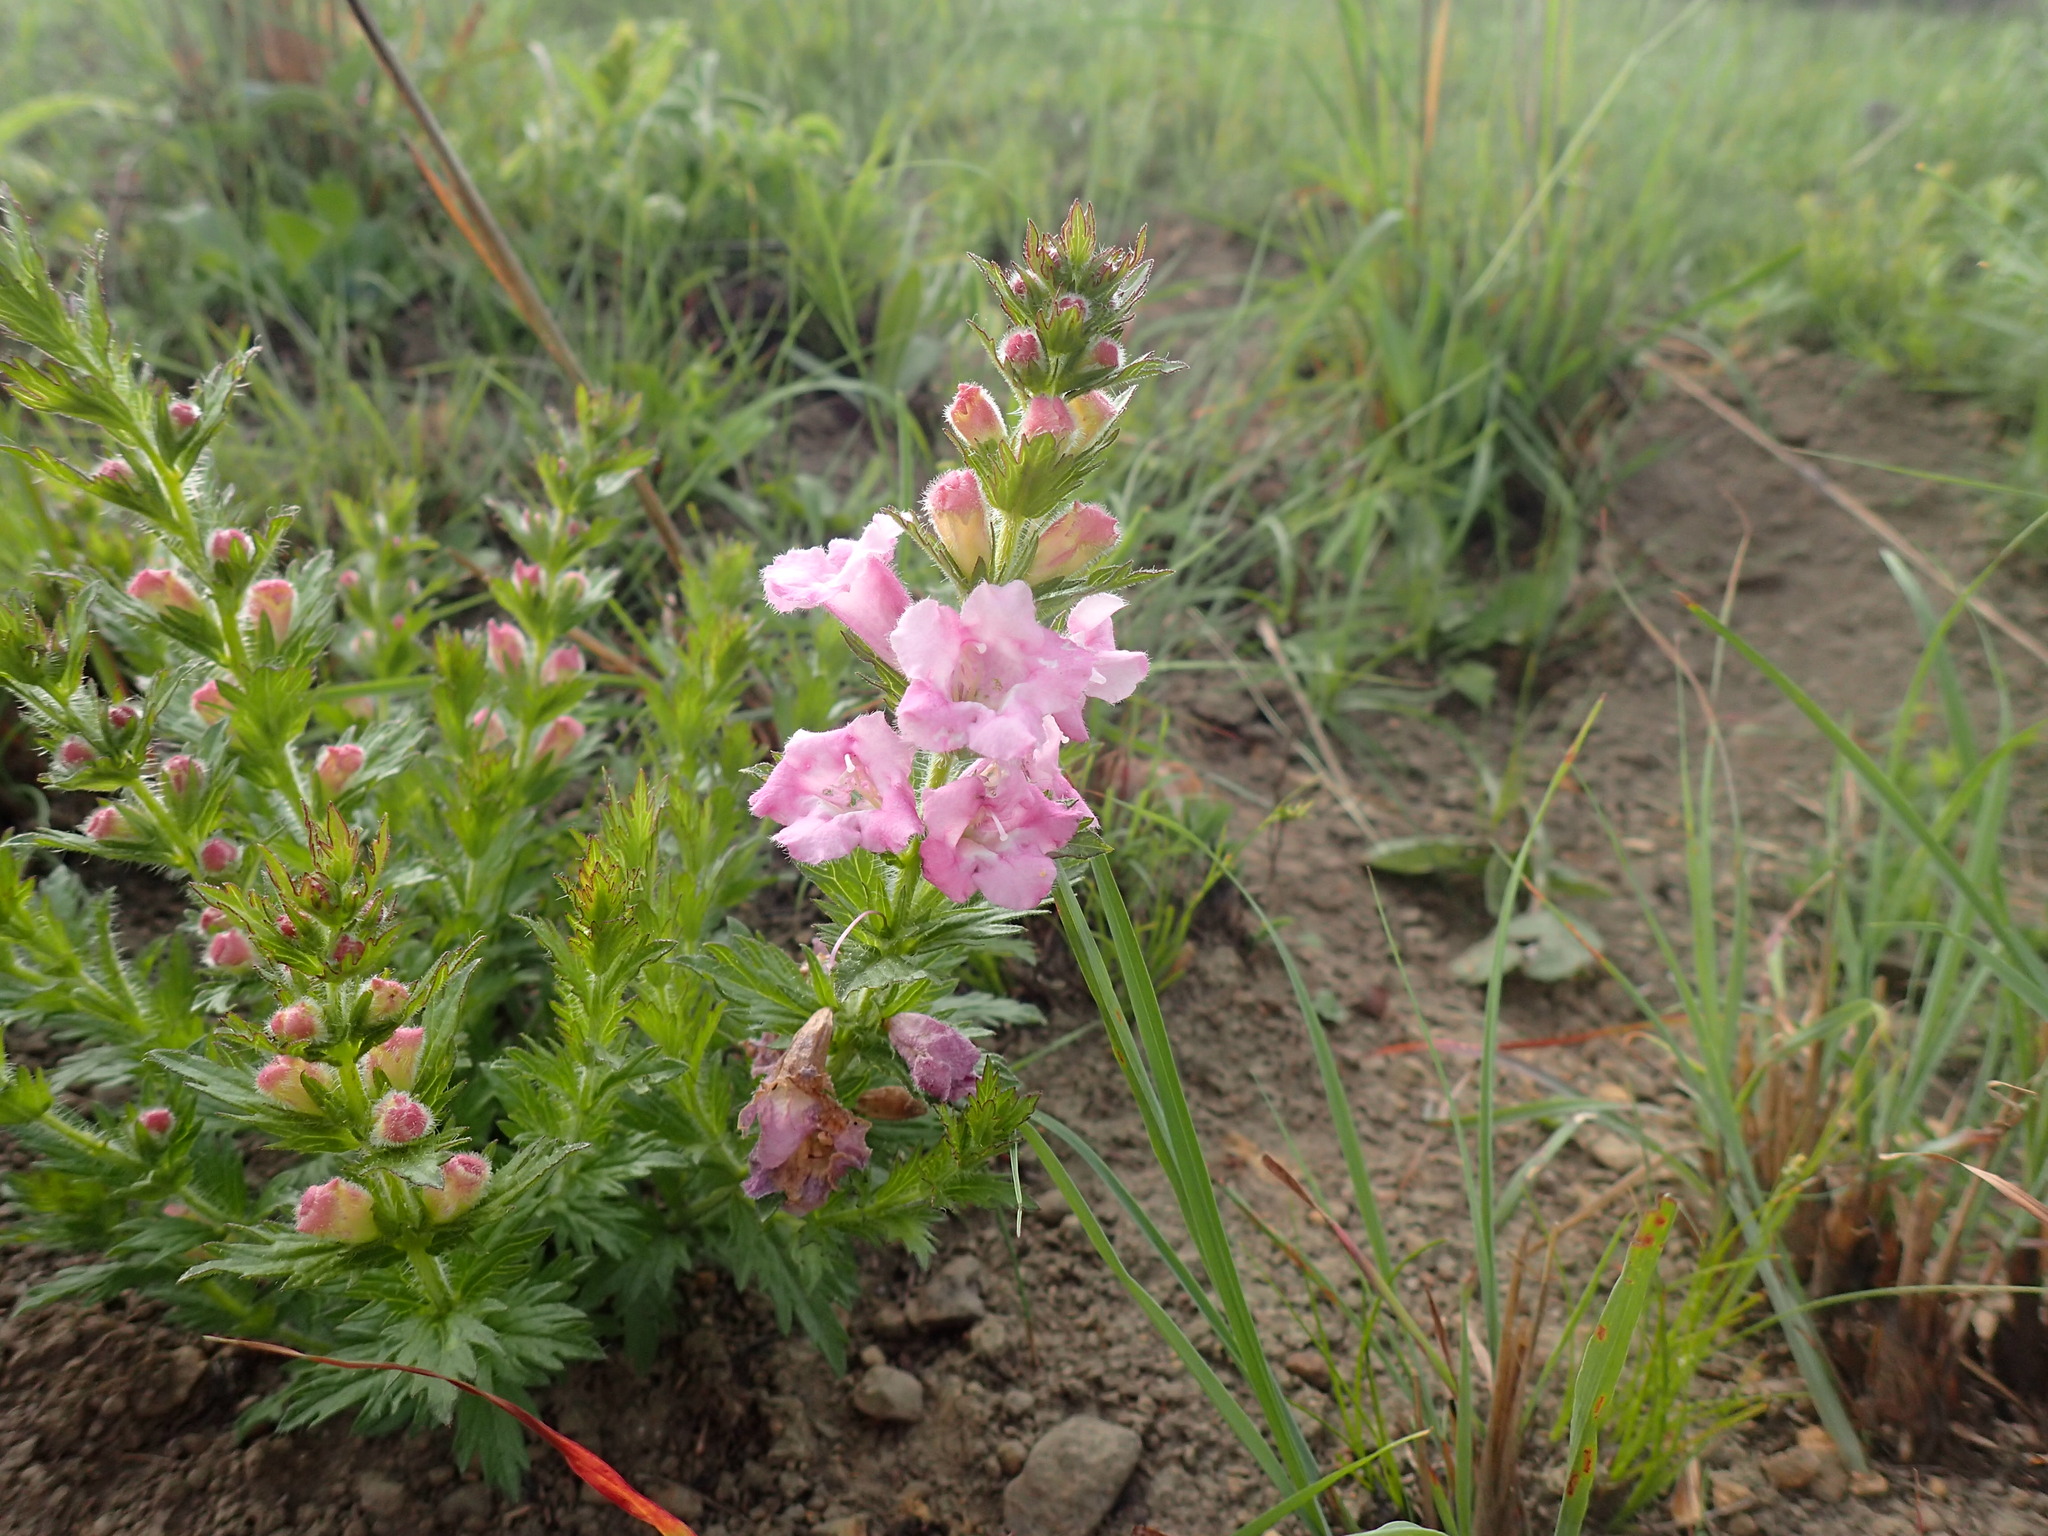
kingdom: Plantae
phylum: Tracheophyta
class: Magnoliopsida
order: Lamiales
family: Orobanchaceae
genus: Graderia
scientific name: Graderia scabra
